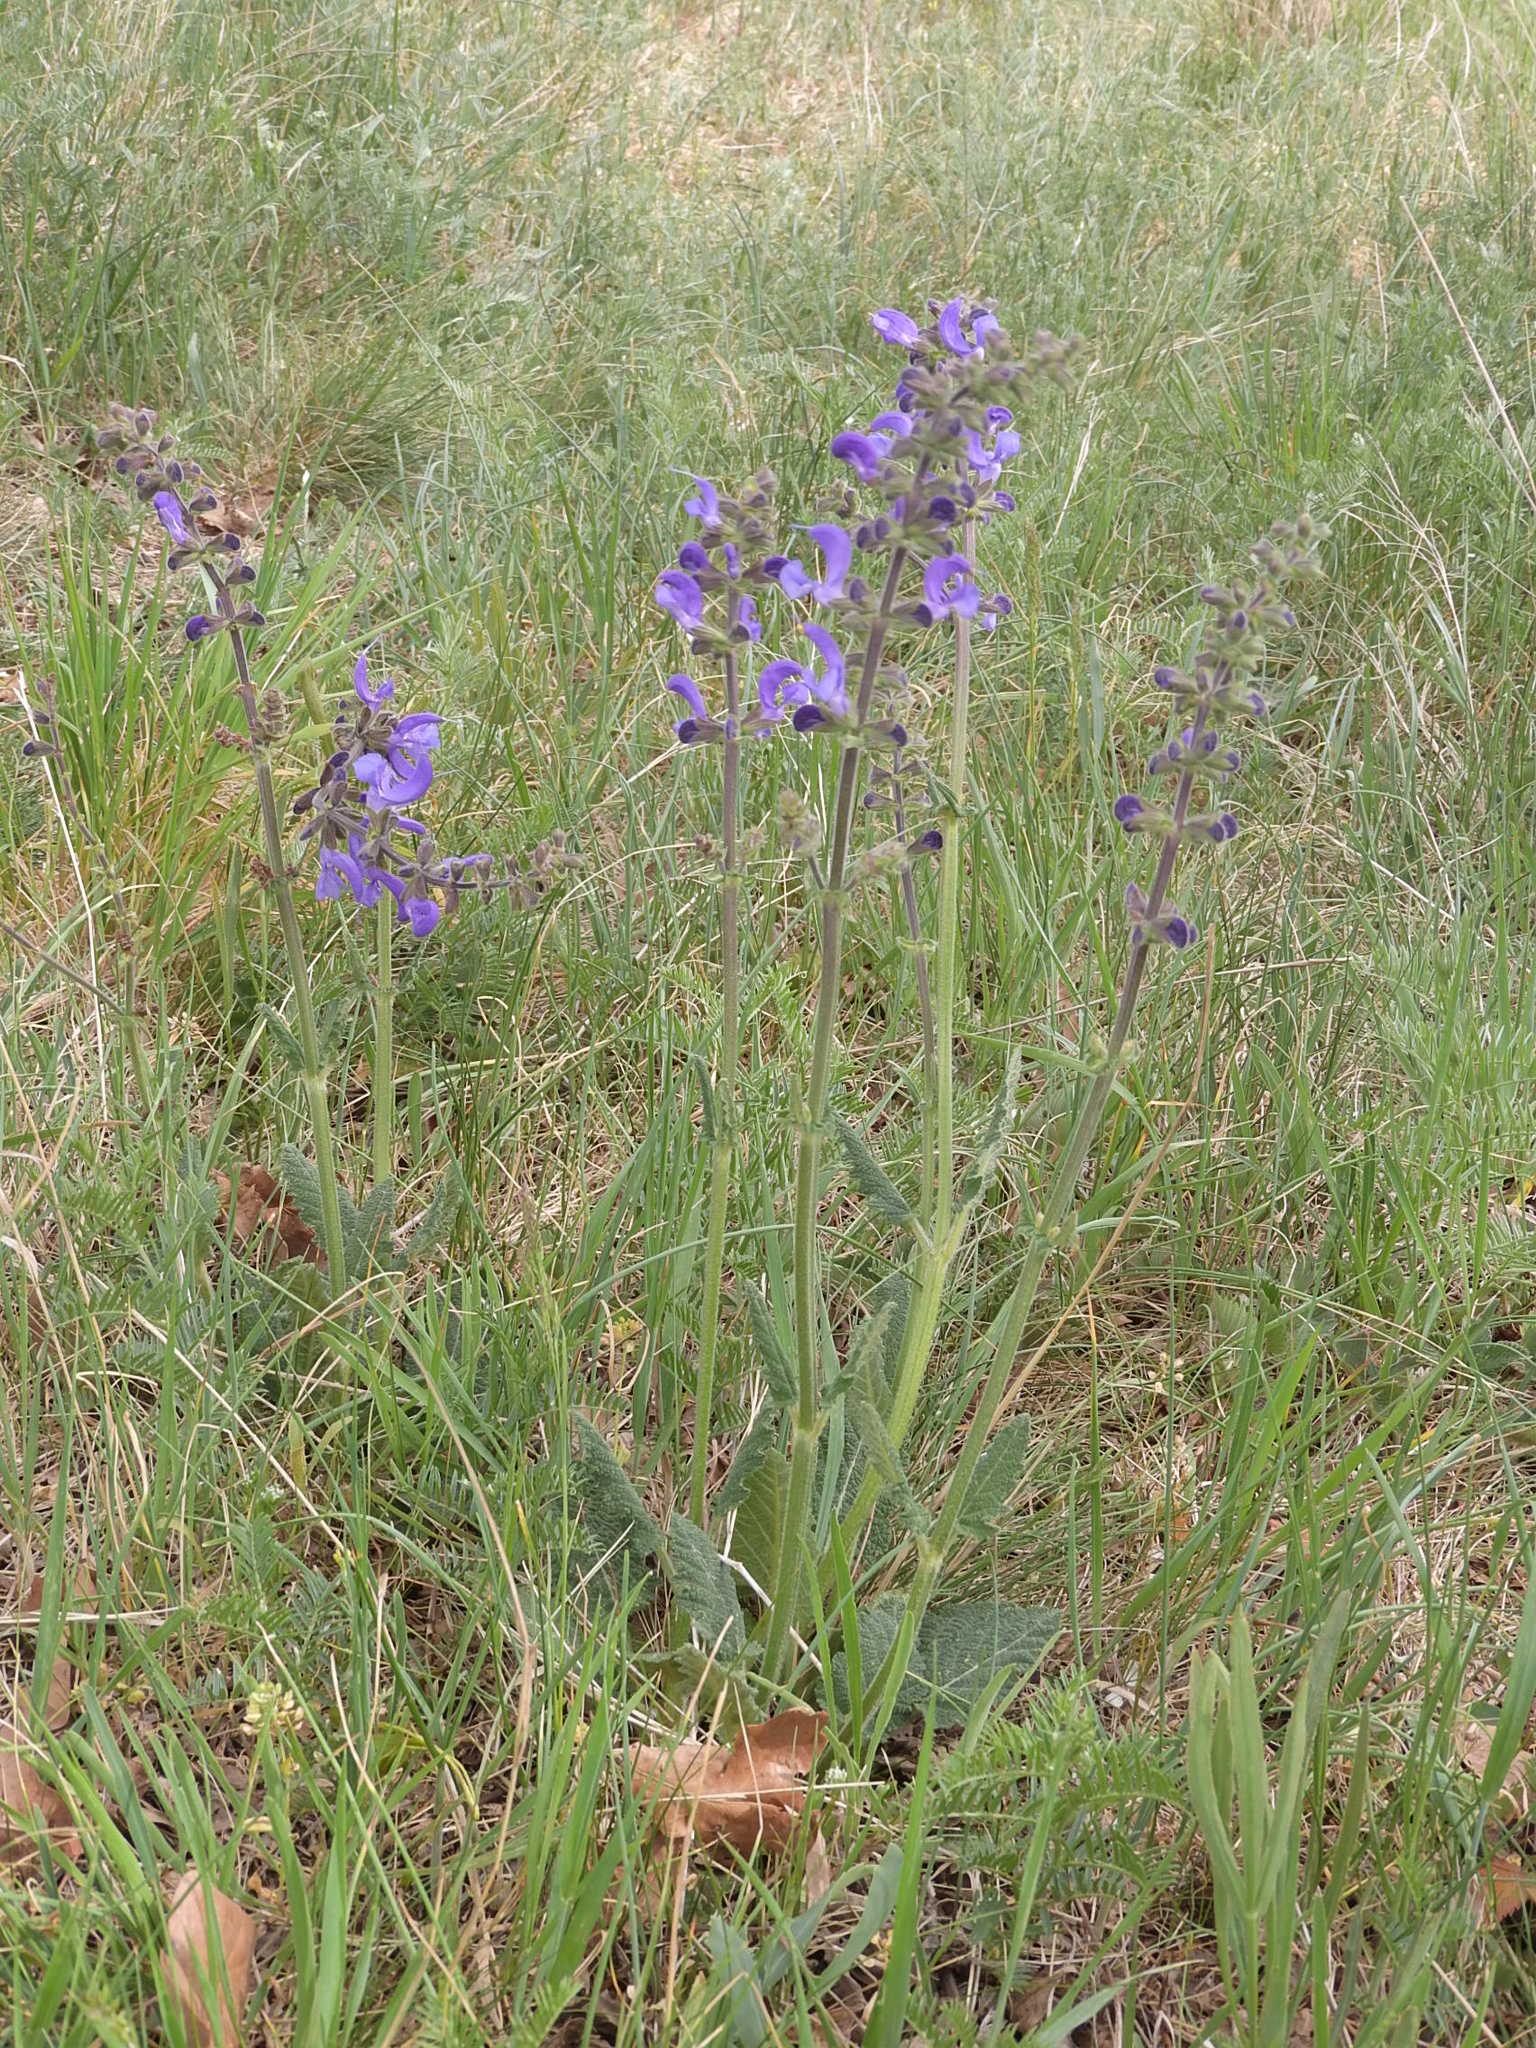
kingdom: Plantae
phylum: Tracheophyta
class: Magnoliopsida
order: Lamiales
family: Lamiaceae
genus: Salvia
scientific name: Salvia pratensis
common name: Meadow sage
